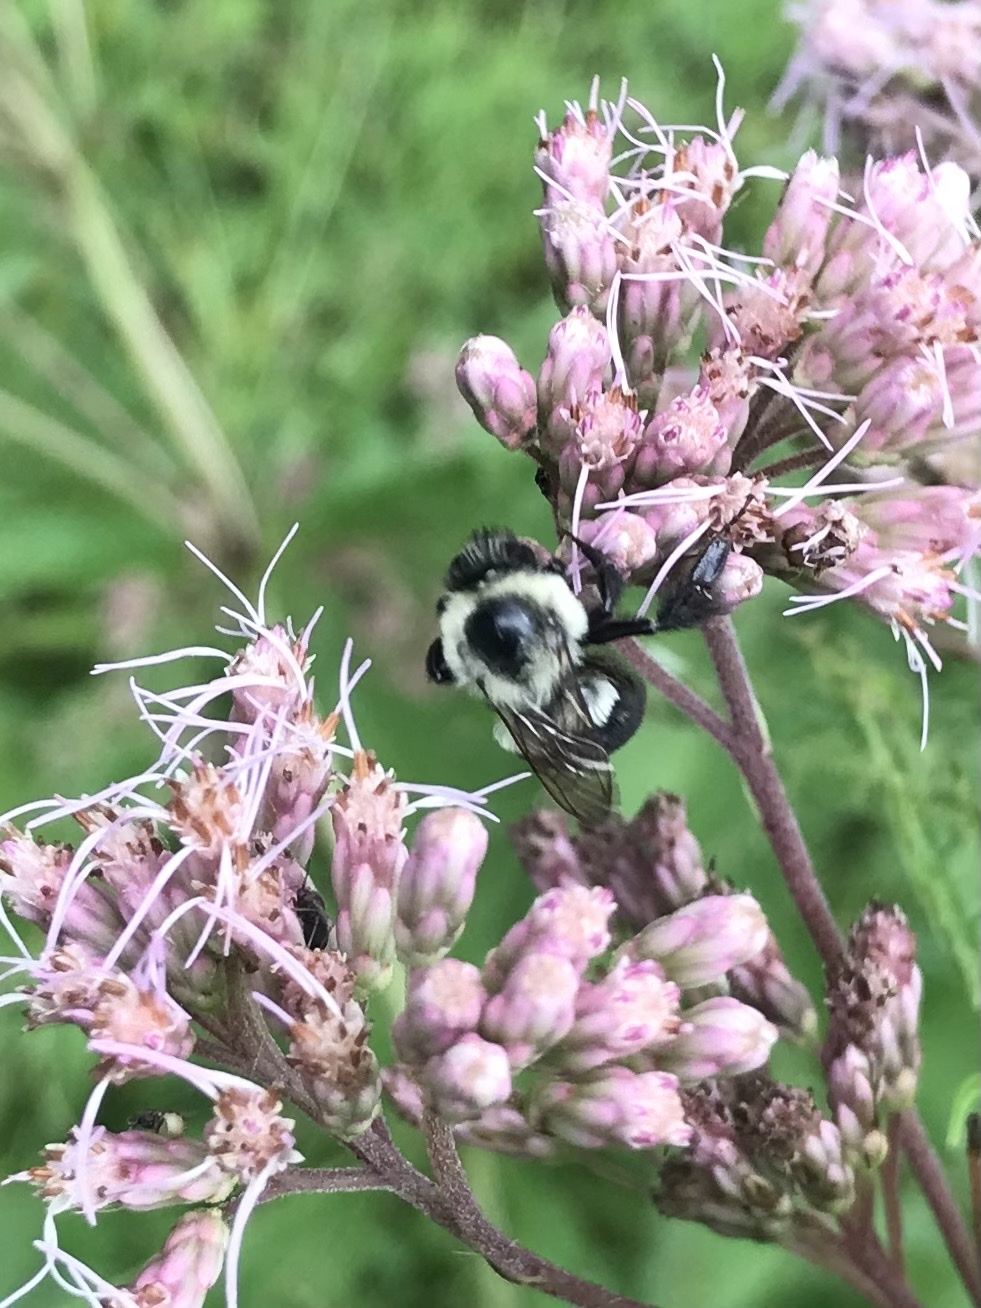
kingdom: Animalia
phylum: Arthropoda
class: Insecta
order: Hymenoptera
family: Apidae
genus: Bombus
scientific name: Bombus impatiens
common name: Common eastern bumble bee
